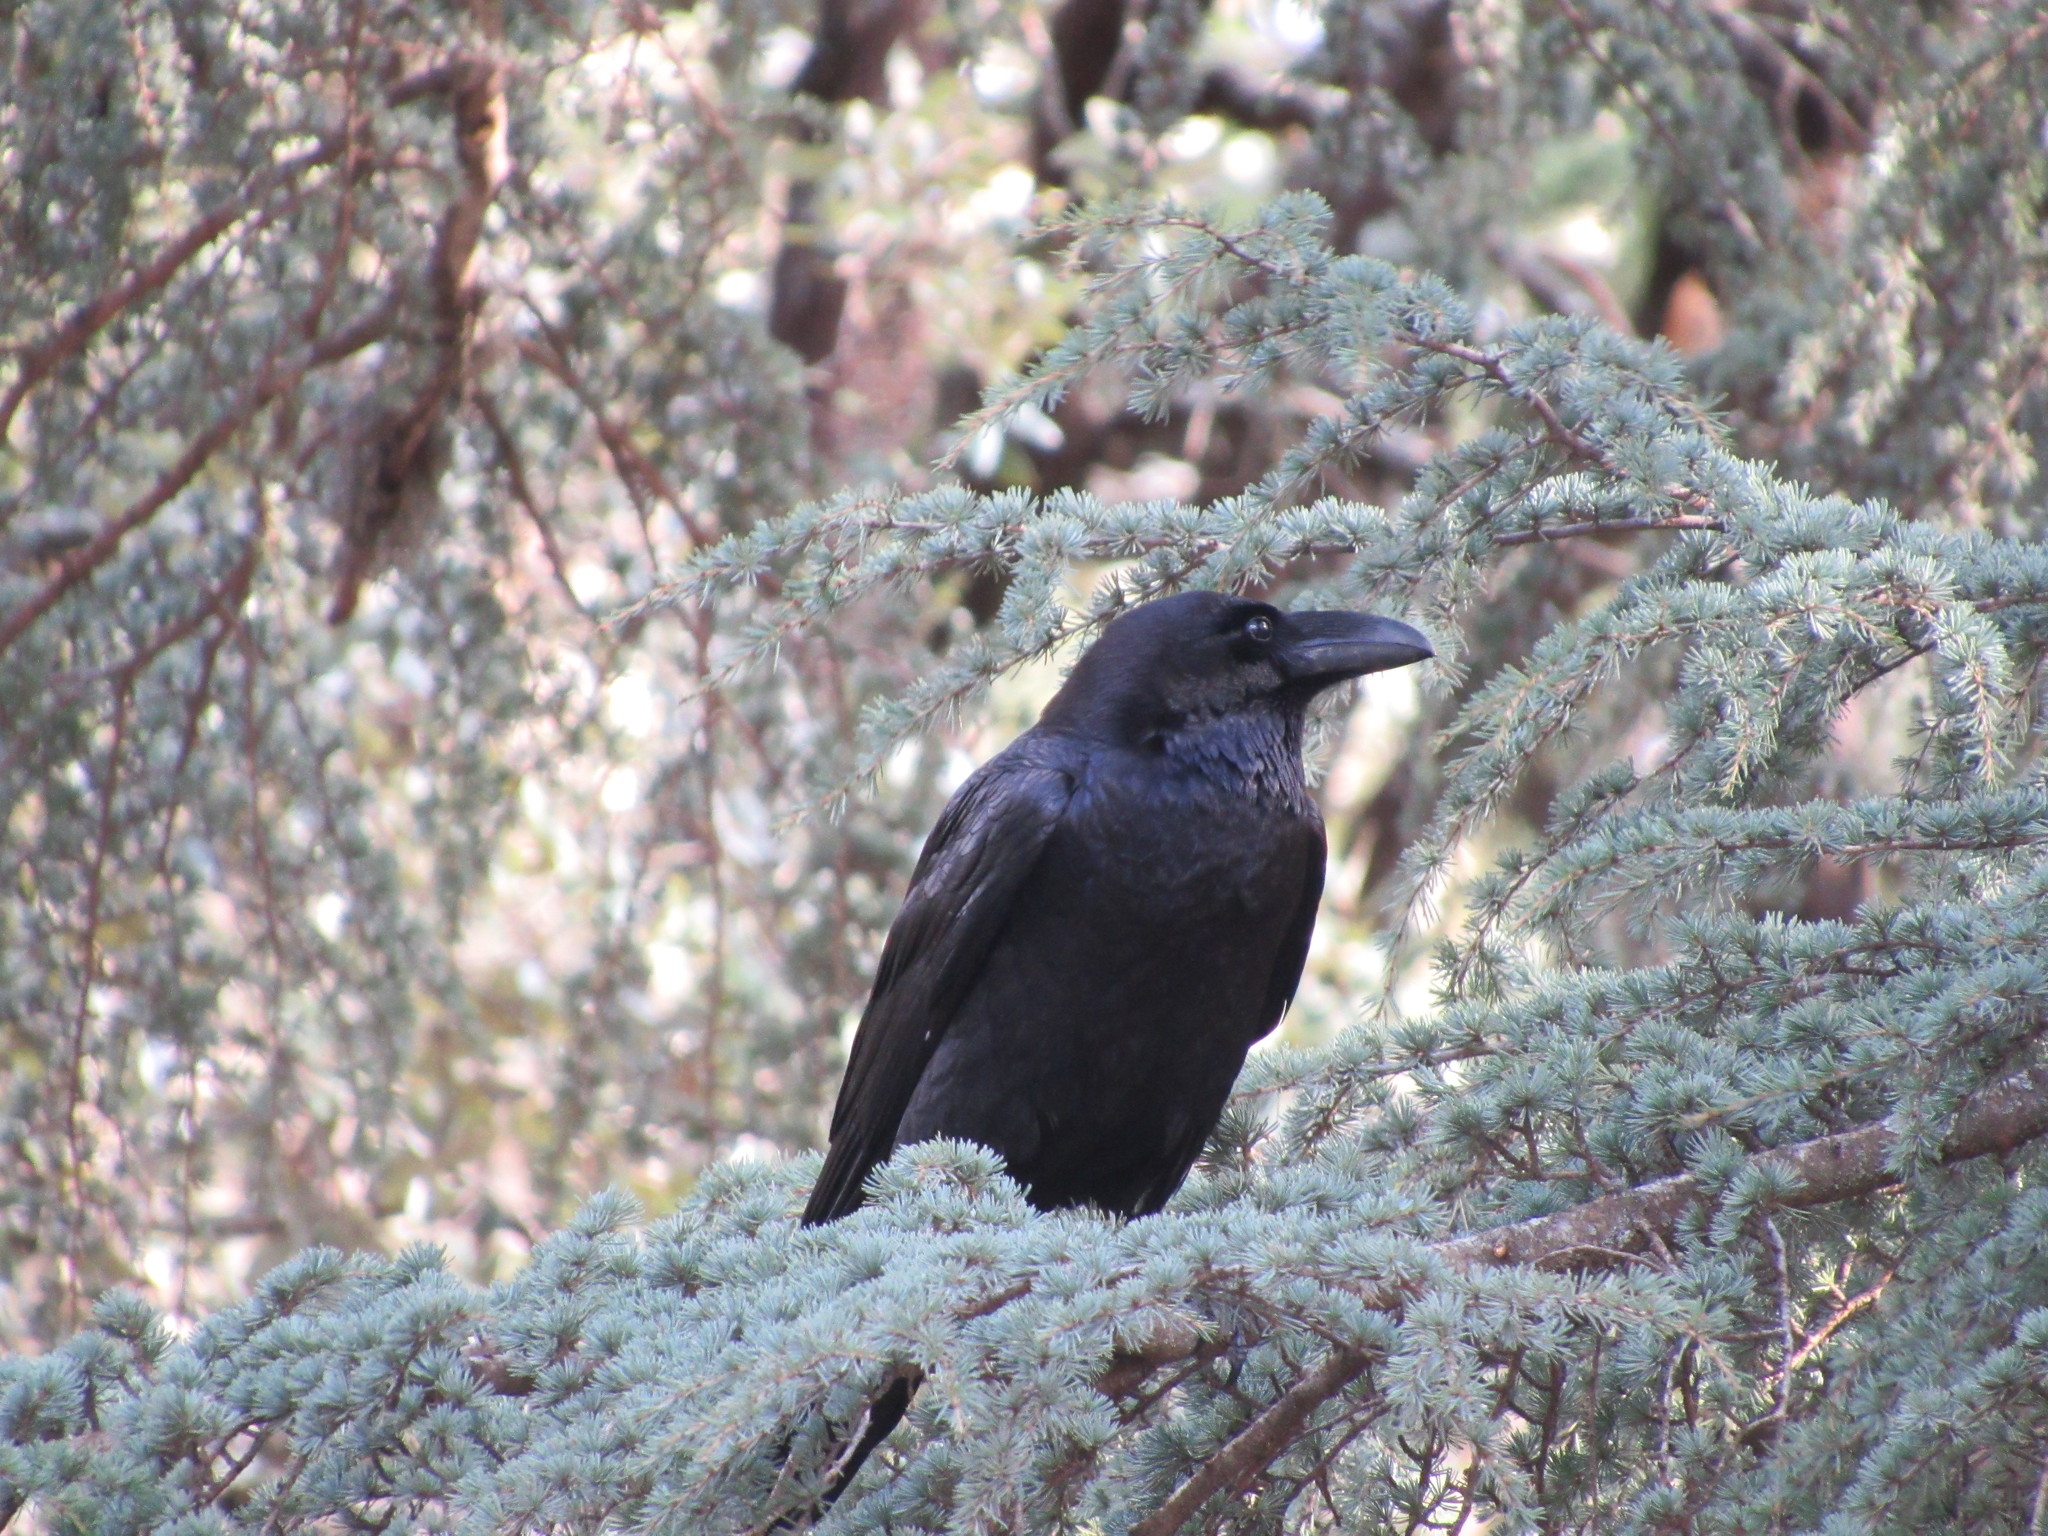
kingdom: Animalia
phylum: Chordata
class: Aves
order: Passeriformes
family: Corvidae
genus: Corvus
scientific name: Corvus corax
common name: Common raven
